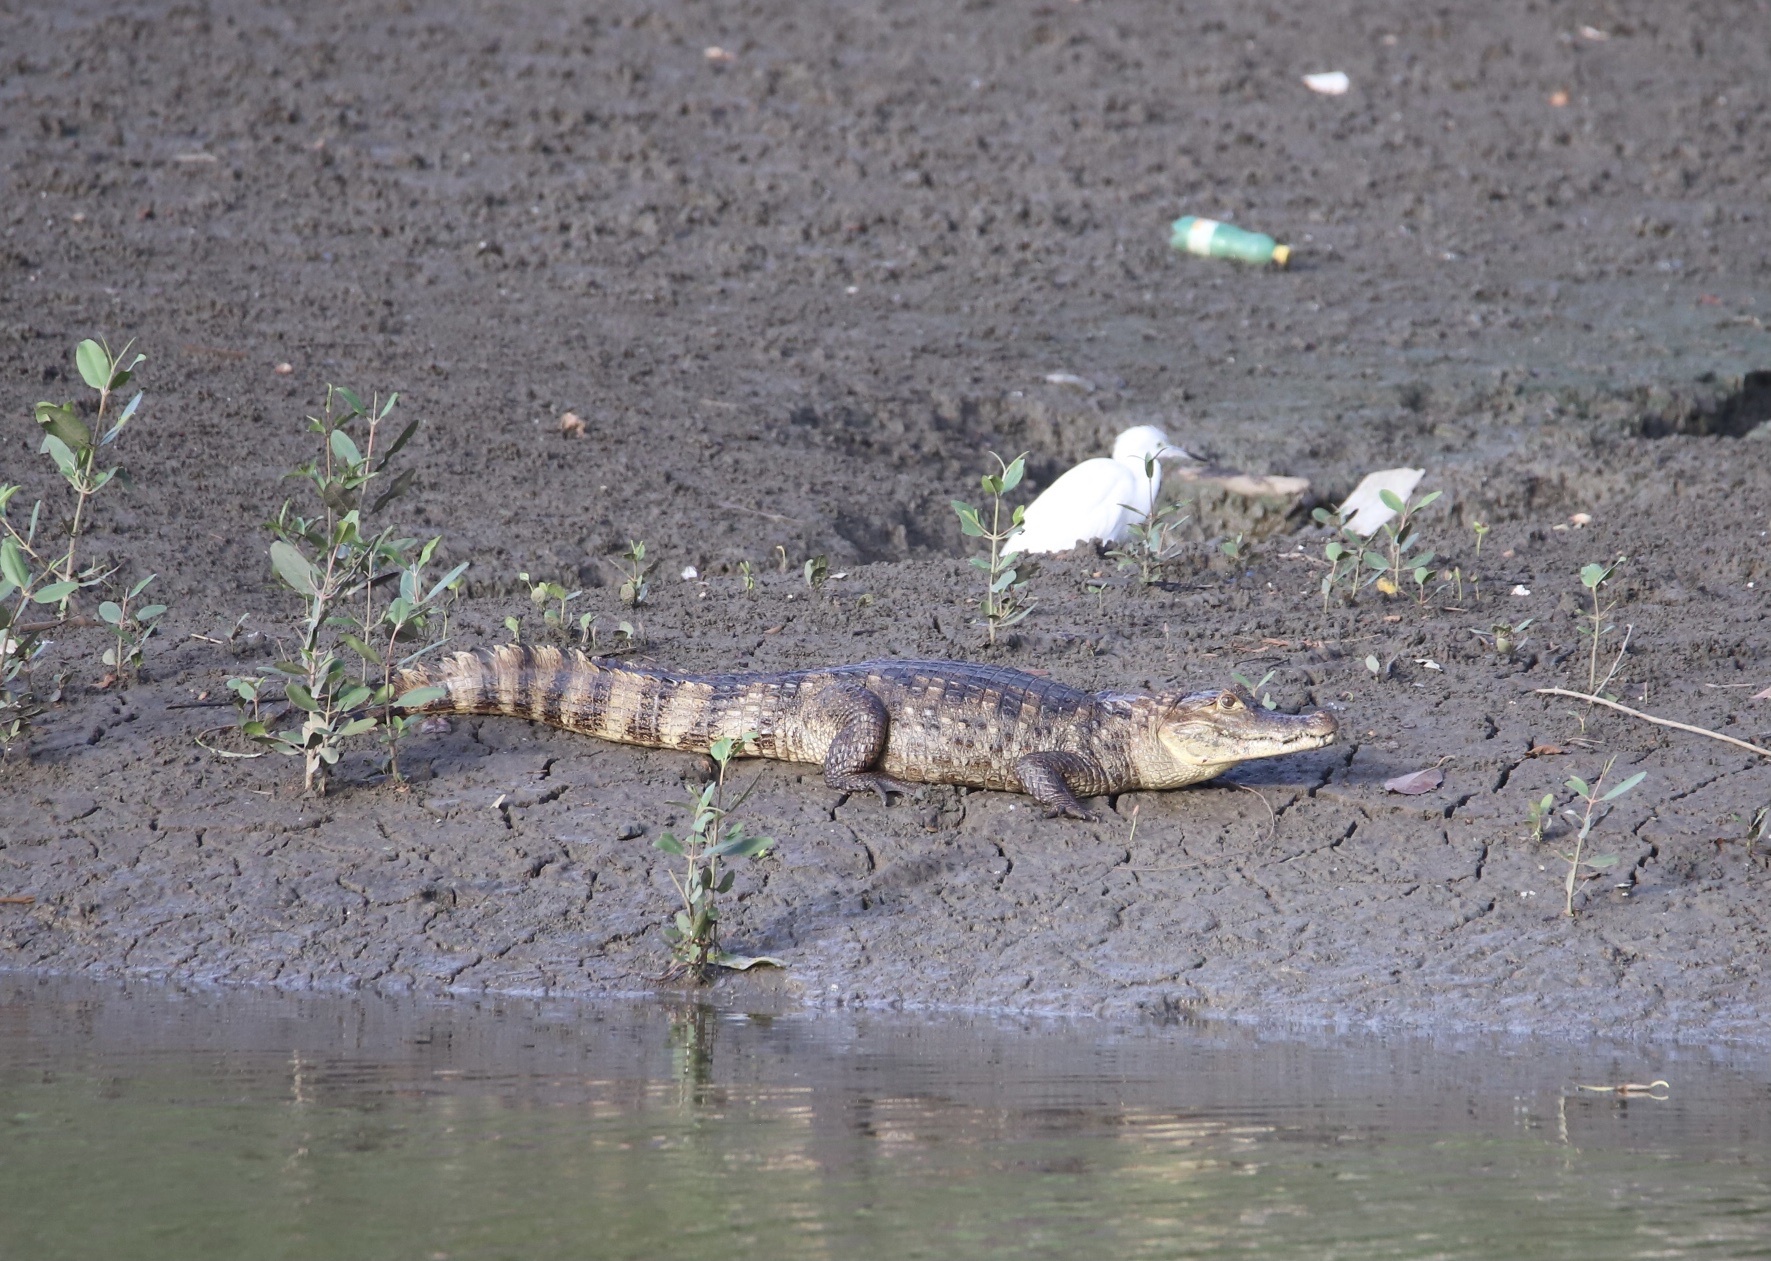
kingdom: Animalia
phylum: Chordata
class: Crocodylia
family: Alligatoridae
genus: Caiman
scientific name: Caiman crocodilus
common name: Common caiman
